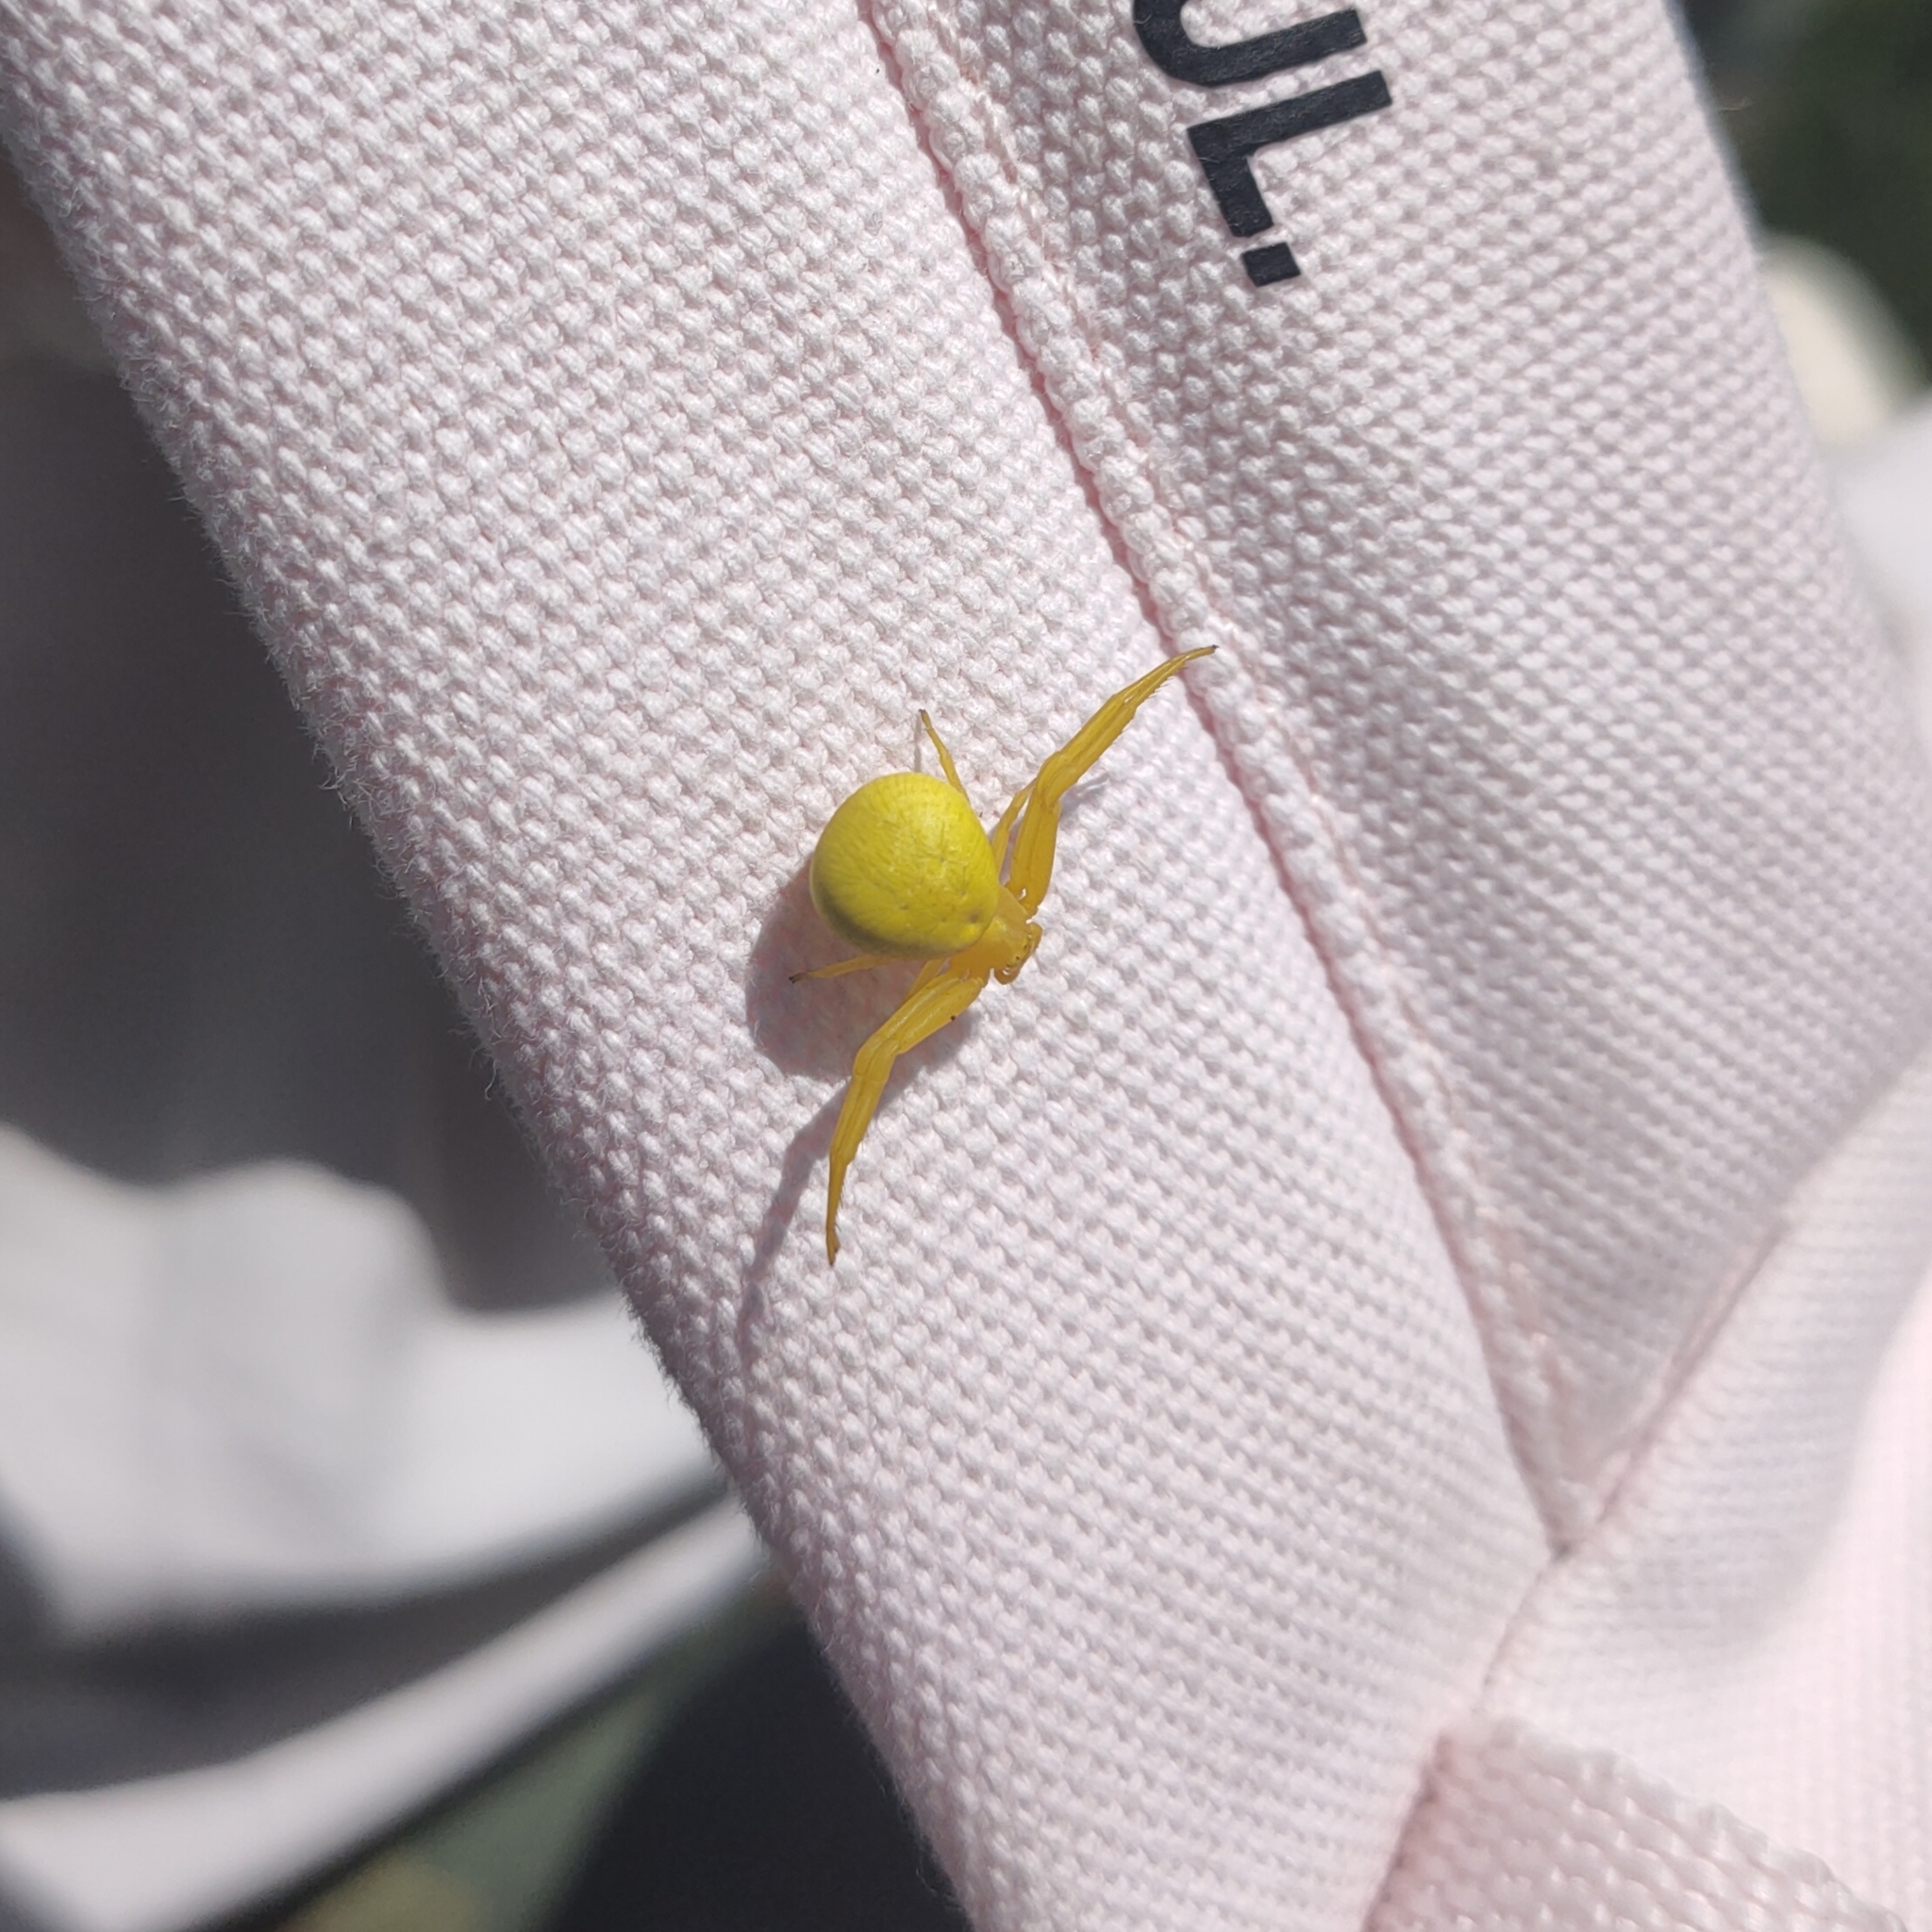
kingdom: Animalia
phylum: Arthropoda
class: Arachnida
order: Araneae
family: Thomisidae
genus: Misumena
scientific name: Misumena vatia
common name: Goldenrod crab spider
